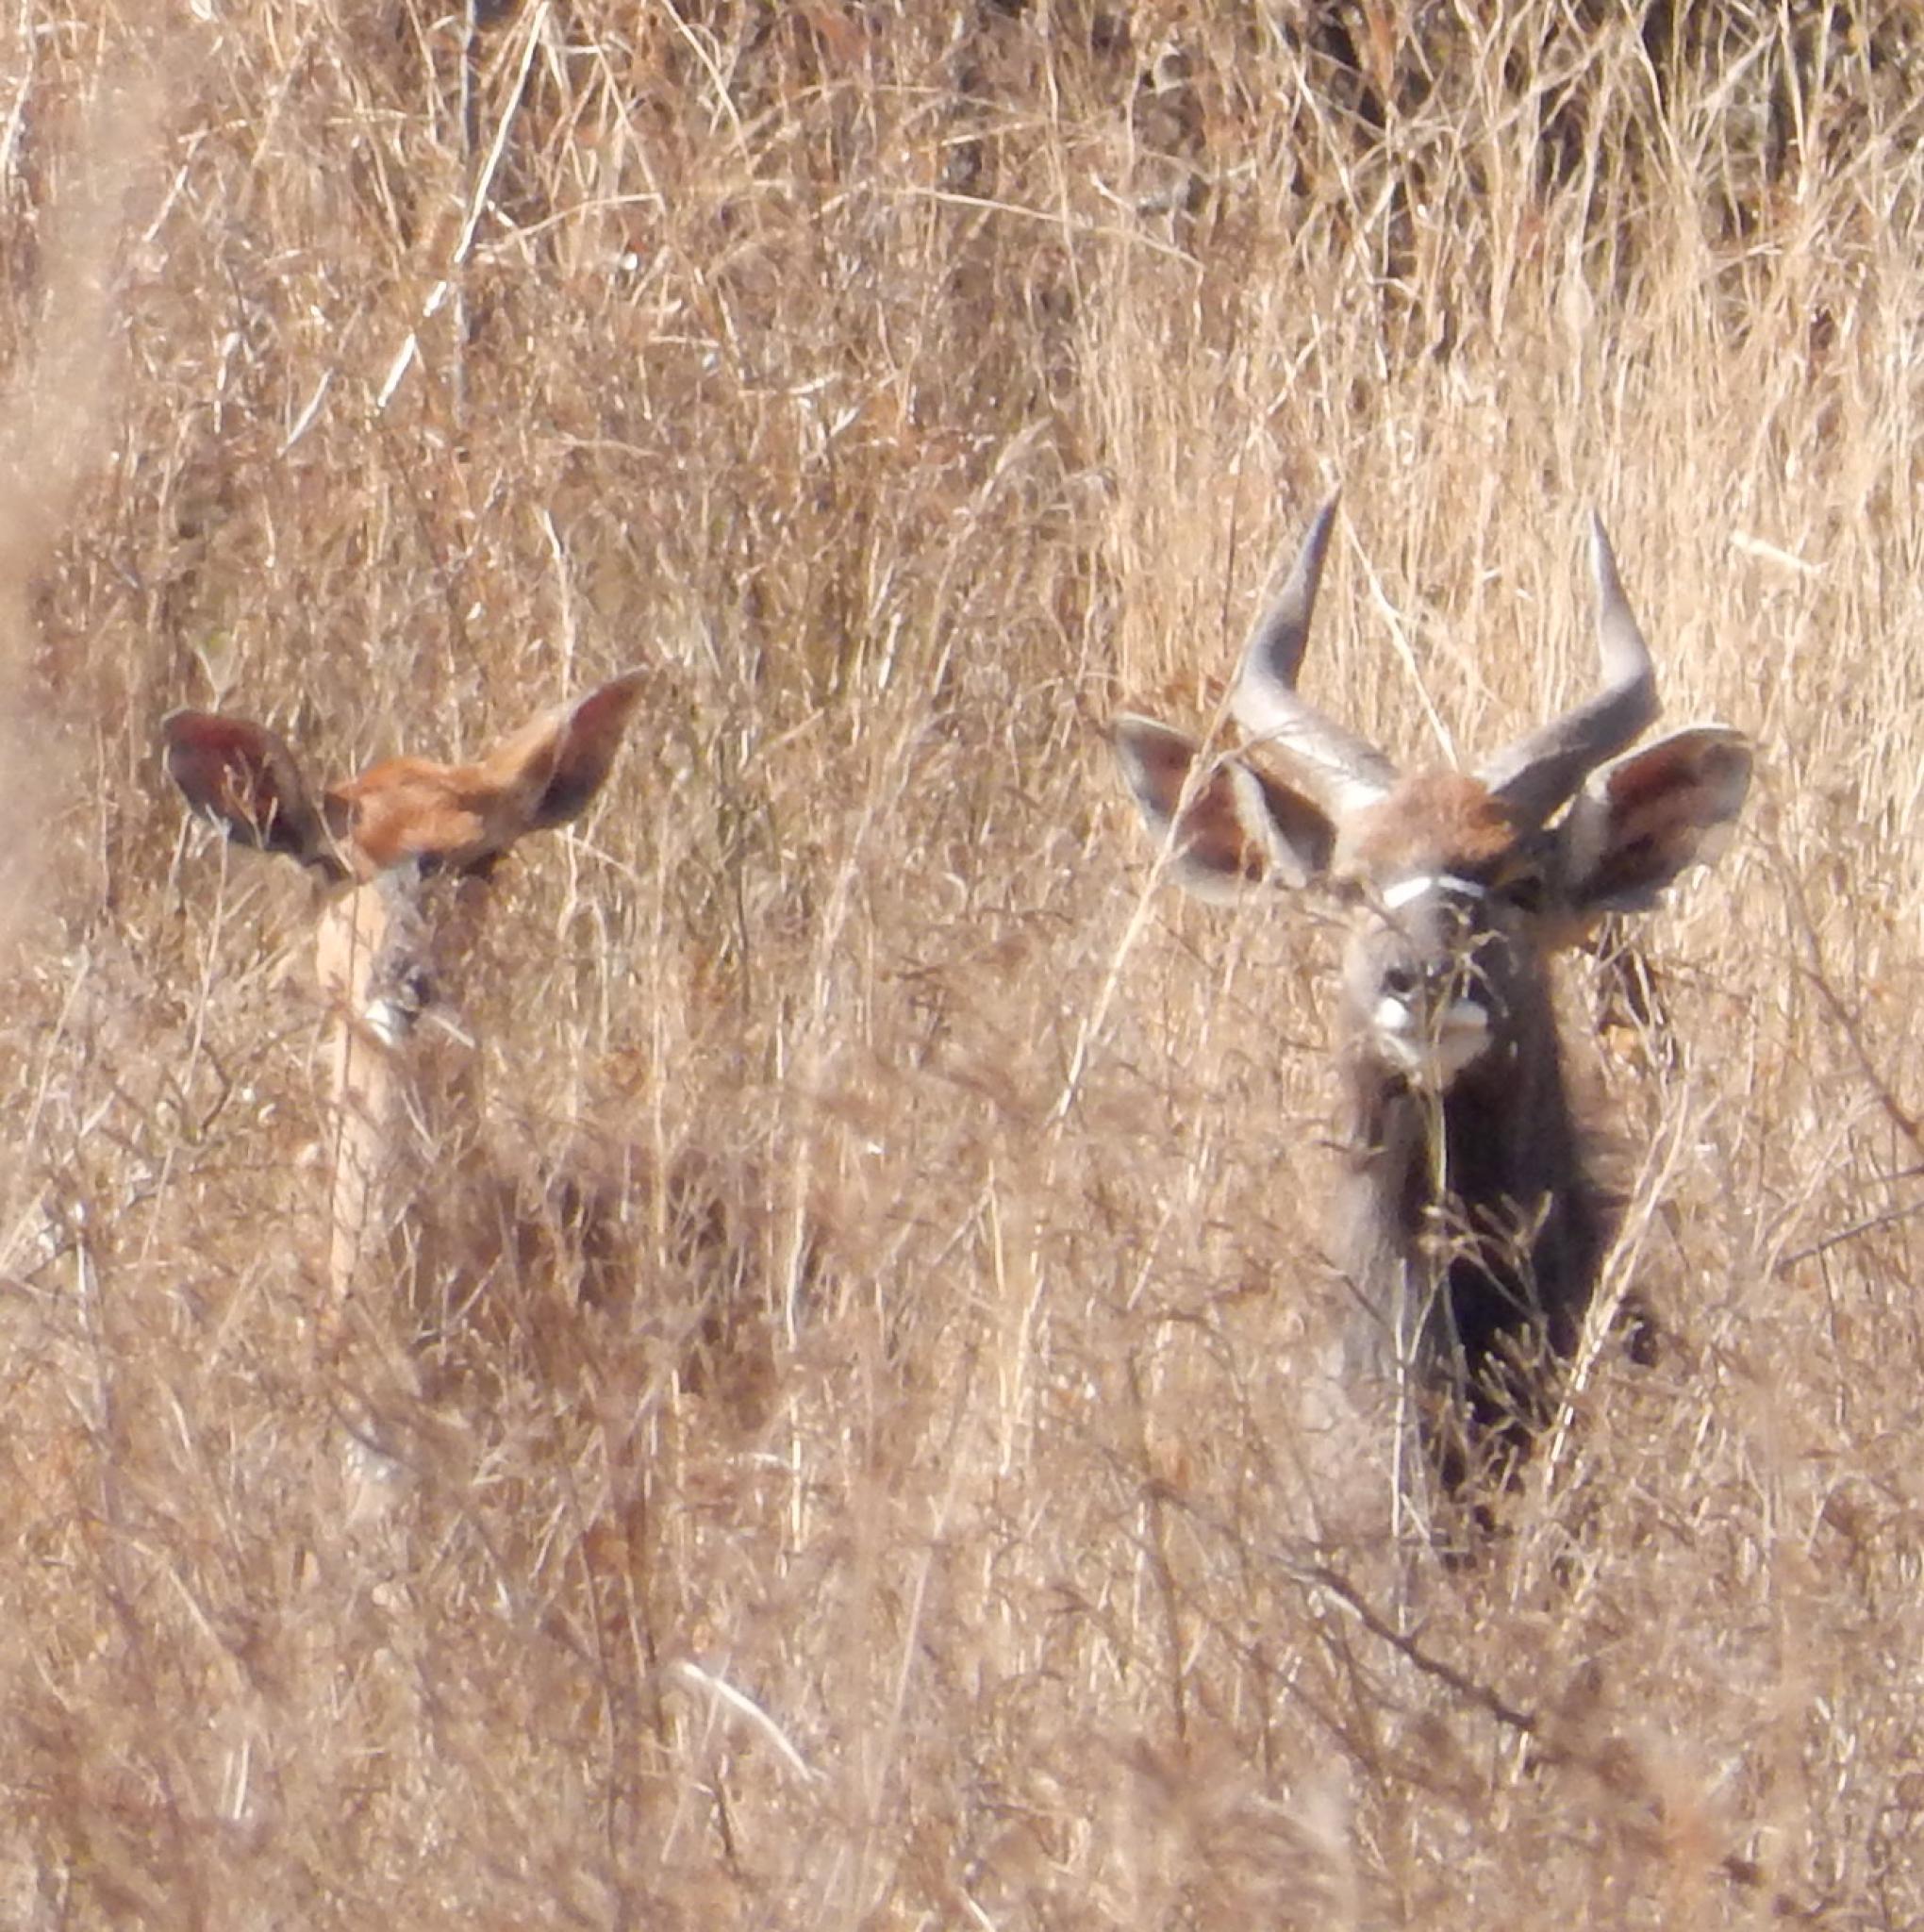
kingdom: Animalia
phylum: Chordata
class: Mammalia
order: Artiodactyla
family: Bovidae
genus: Tragelaphus
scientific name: Tragelaphus angasii
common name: Nyala
